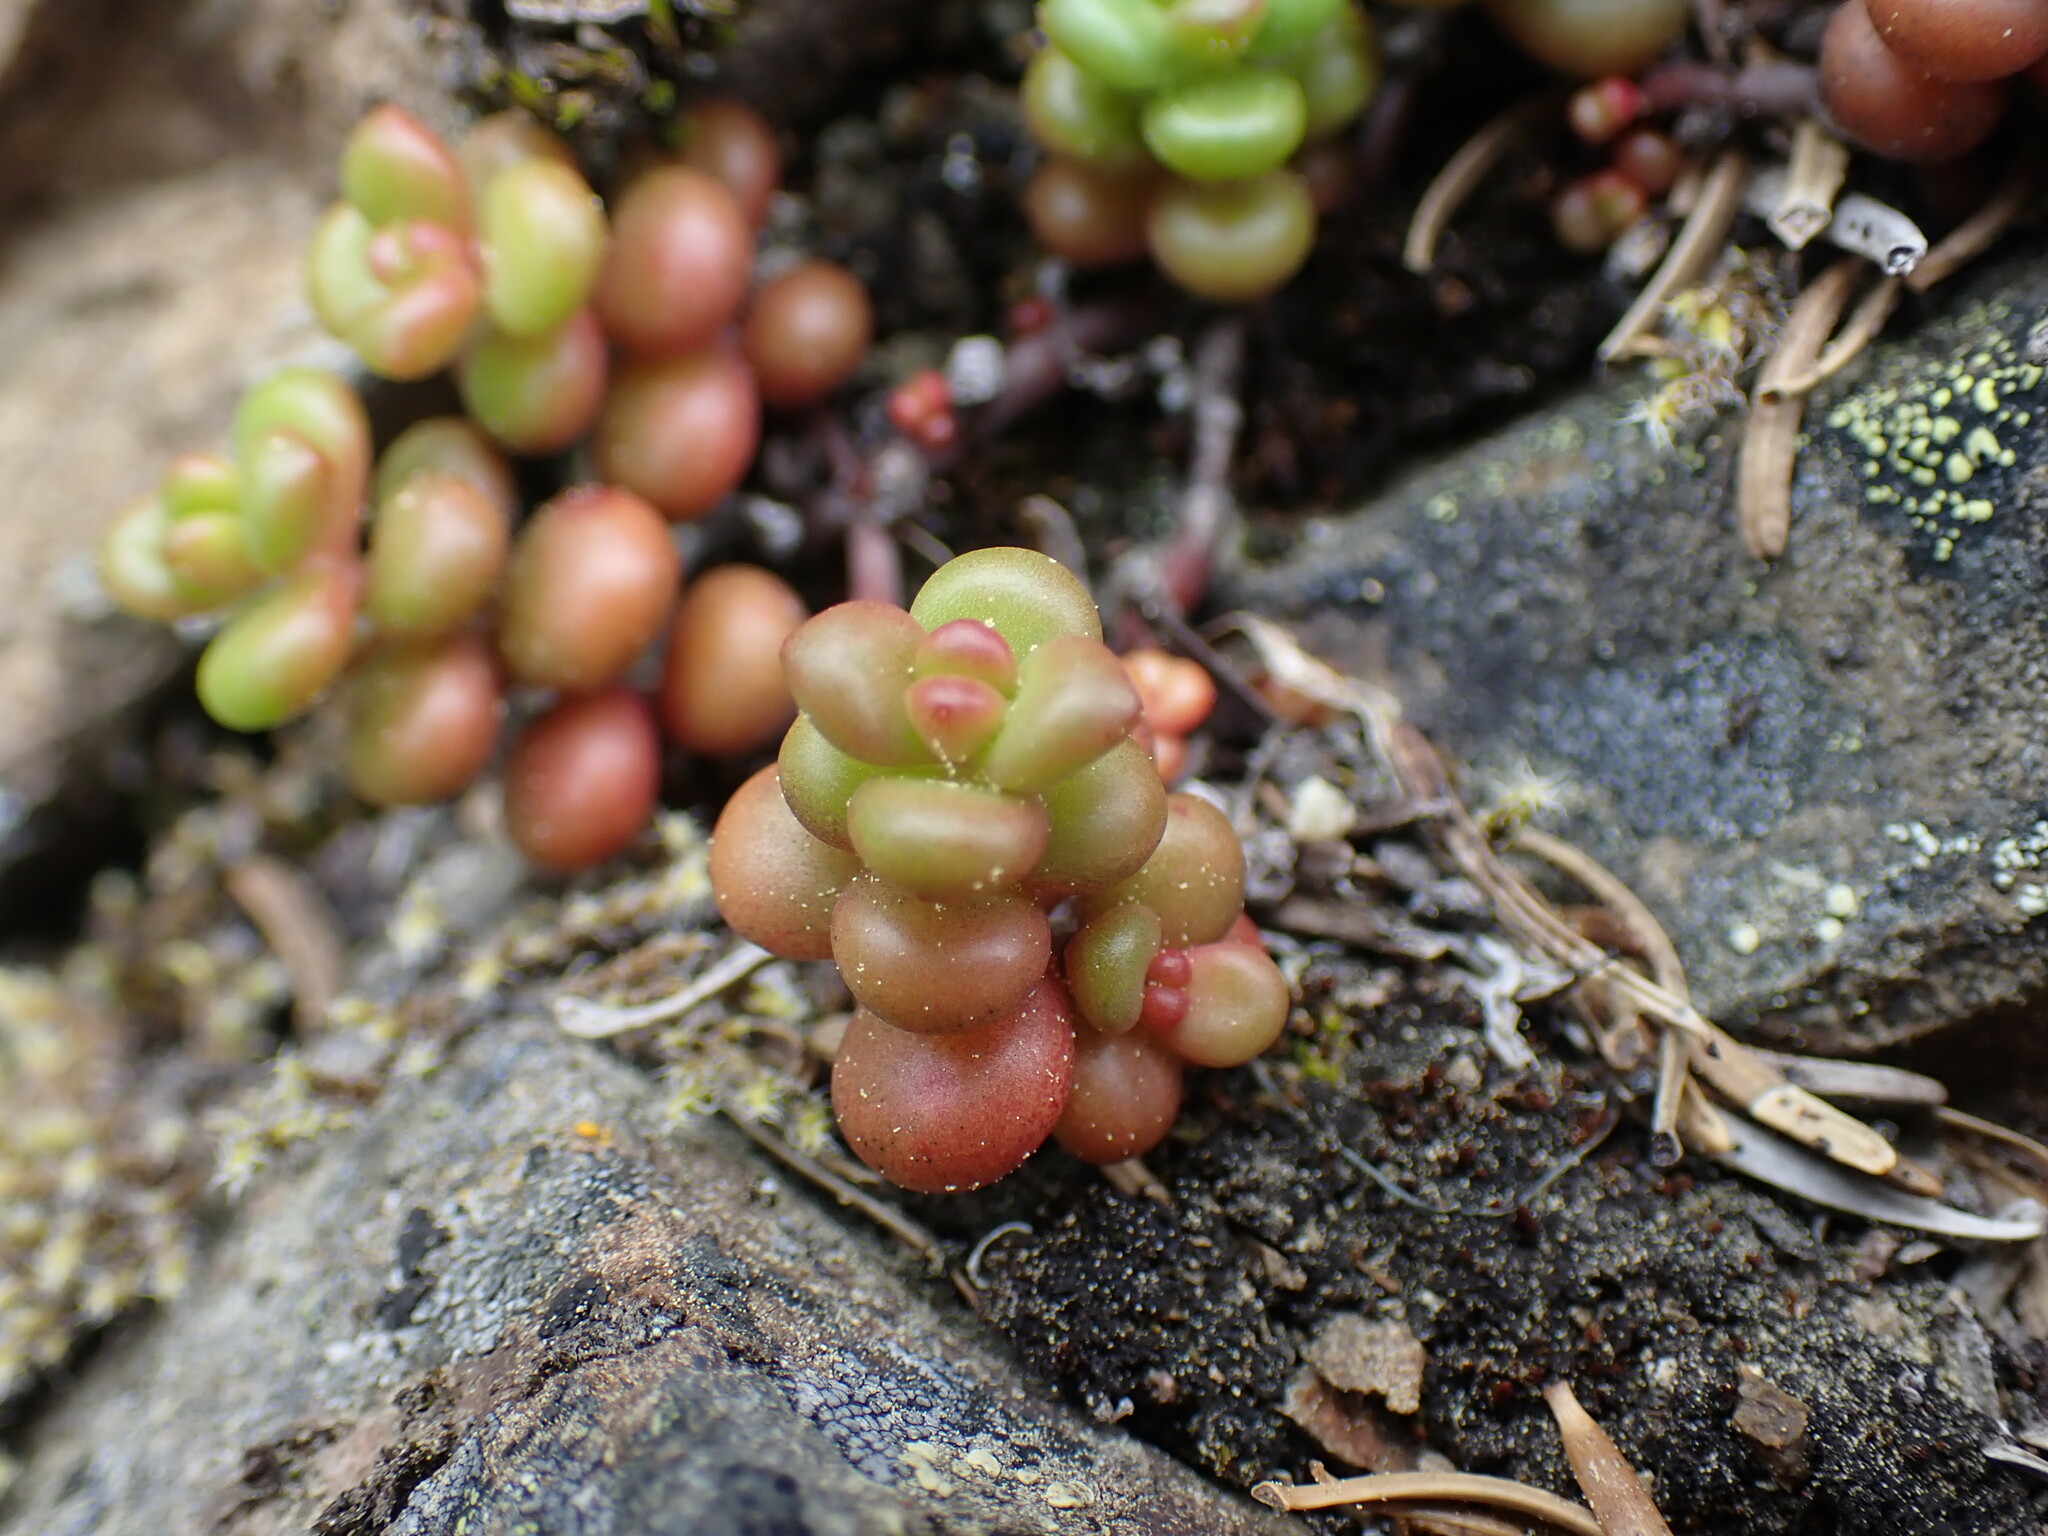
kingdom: Plantae
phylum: Tracheophyta
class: Magnoliopsida
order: Saxifragales
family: Crassulaceae
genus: Sedum
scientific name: Sedum divergens
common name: Cascade stonecrop
